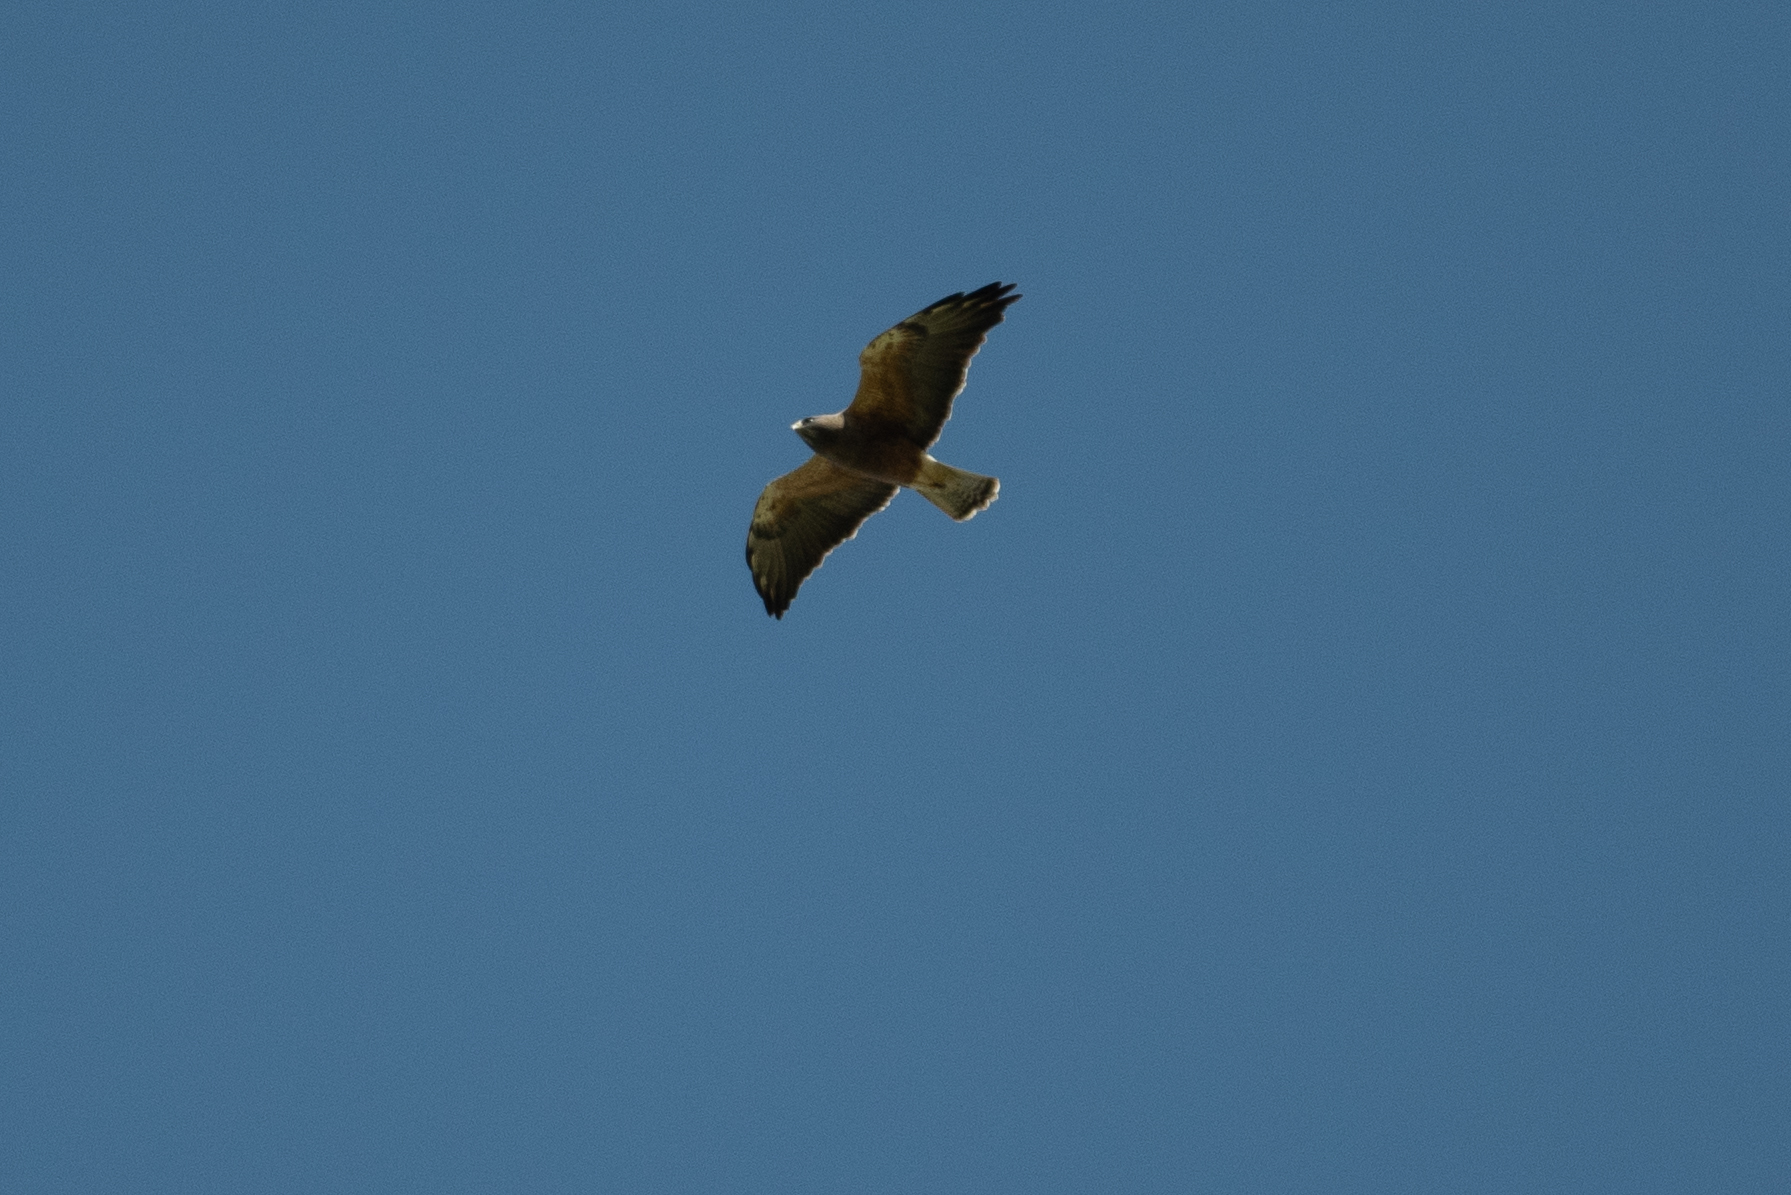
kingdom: Animalia
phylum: Chordata
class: Aves
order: Accipitriformes
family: Accipitridae
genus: Buteo
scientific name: Buteo swainsoni
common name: Swainson's hawk
